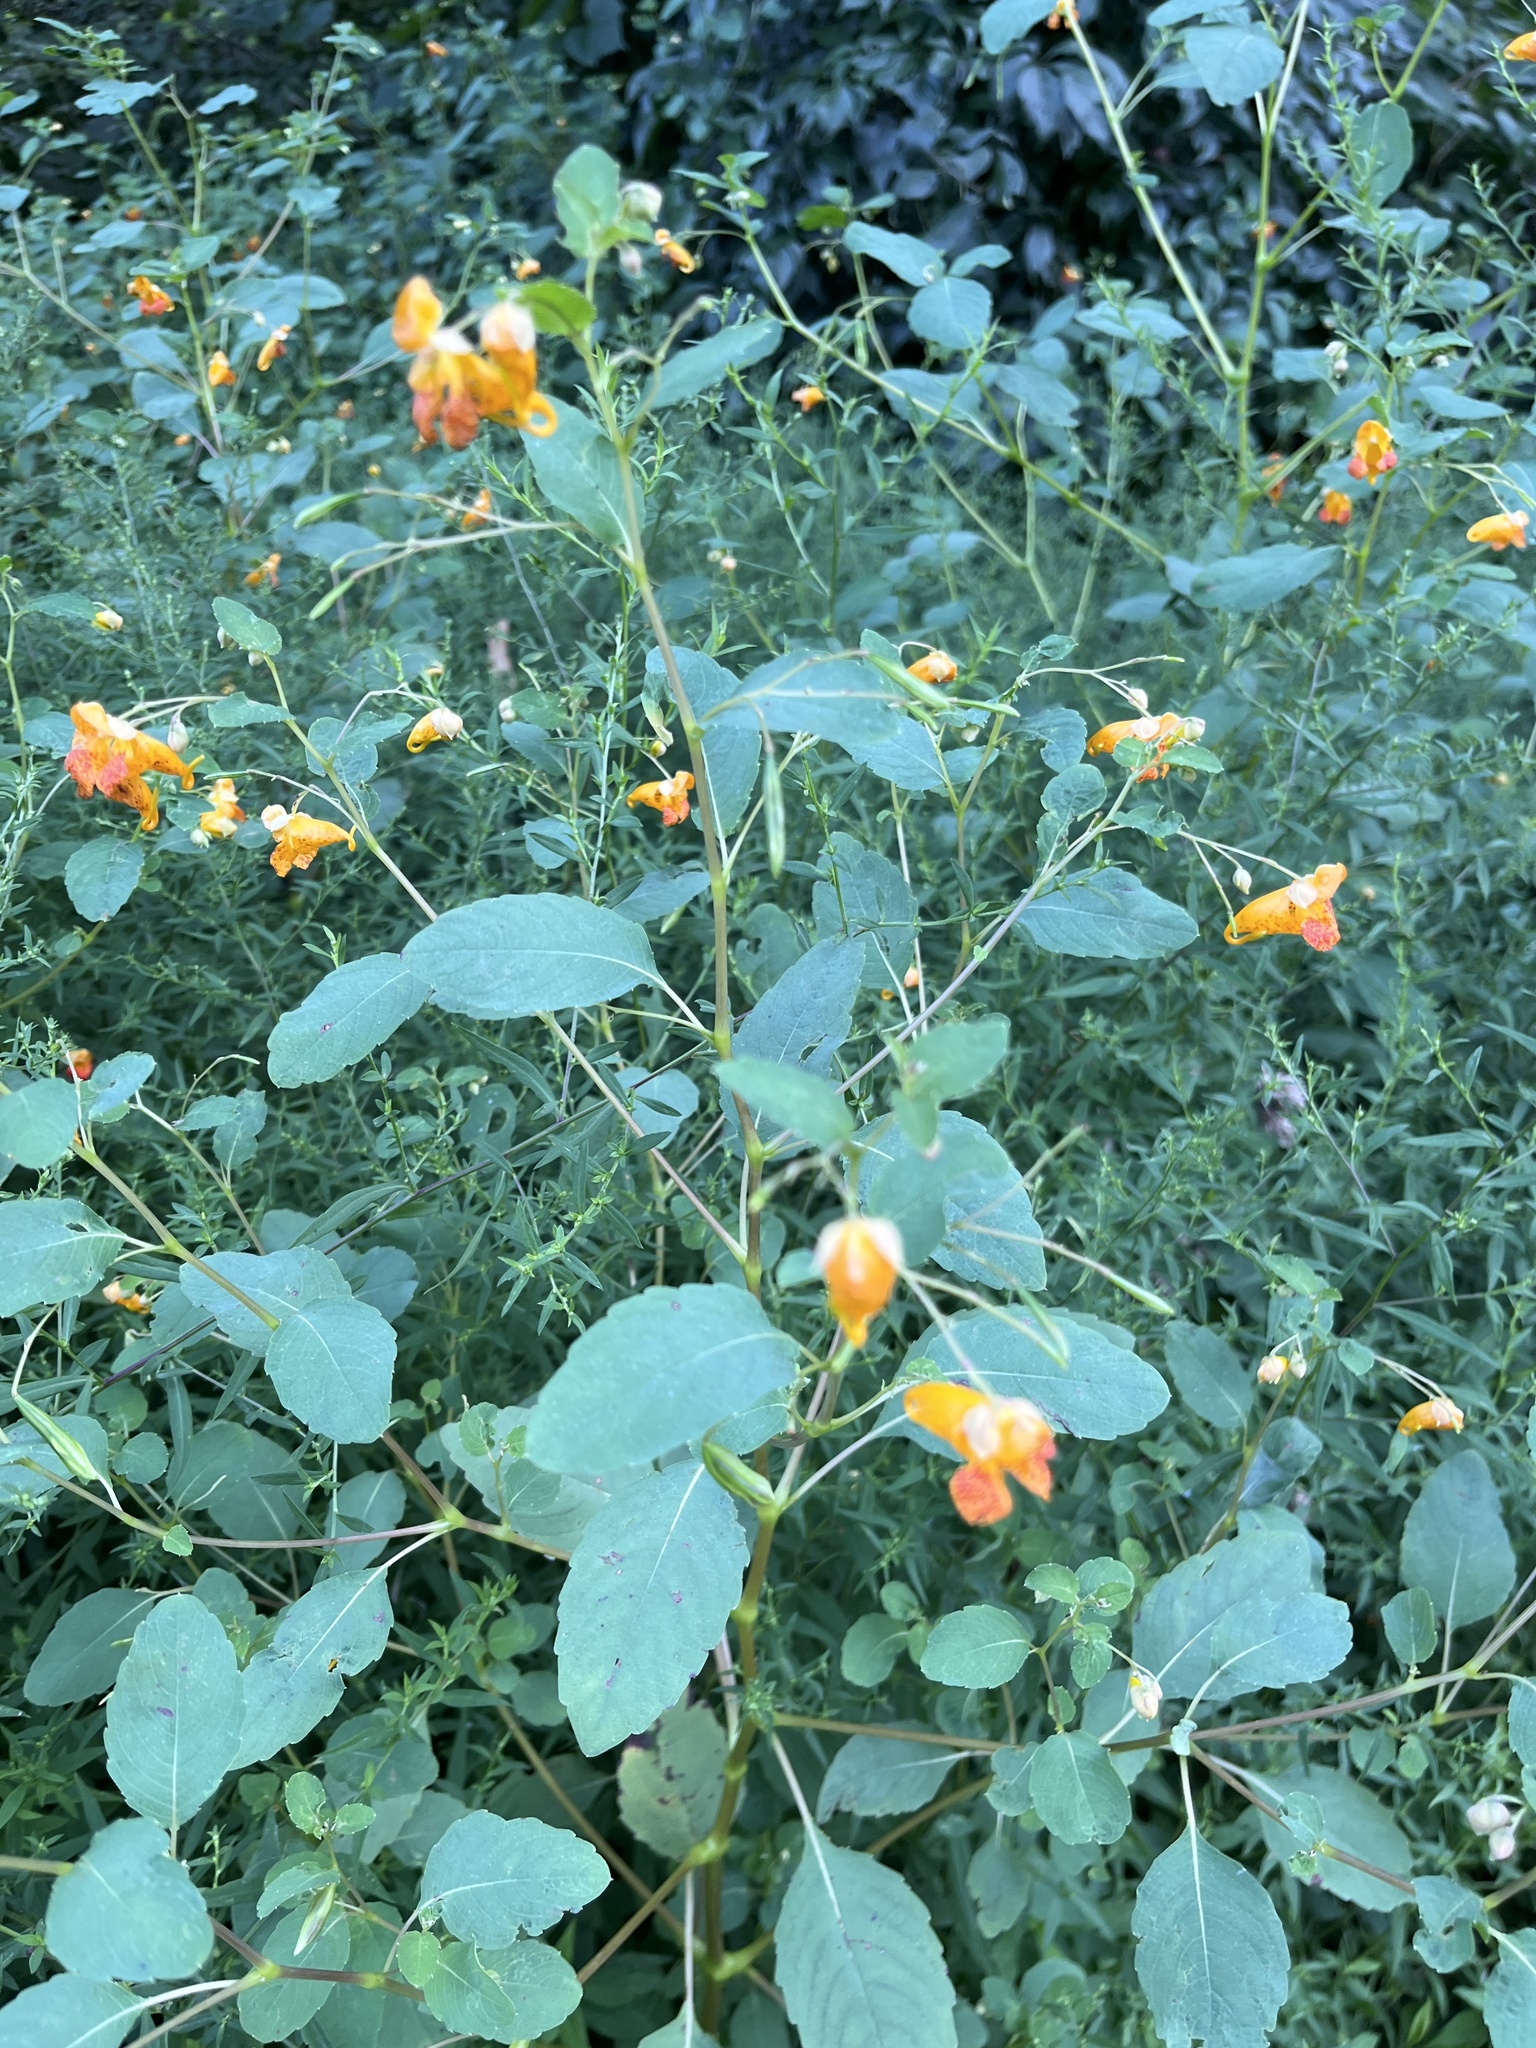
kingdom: Plantae
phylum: Tracheophyta
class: Magnoliopsida
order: Ericales
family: Balsaminaceae
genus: Impatiens
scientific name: Impatiens capensis
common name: Orange balsam
